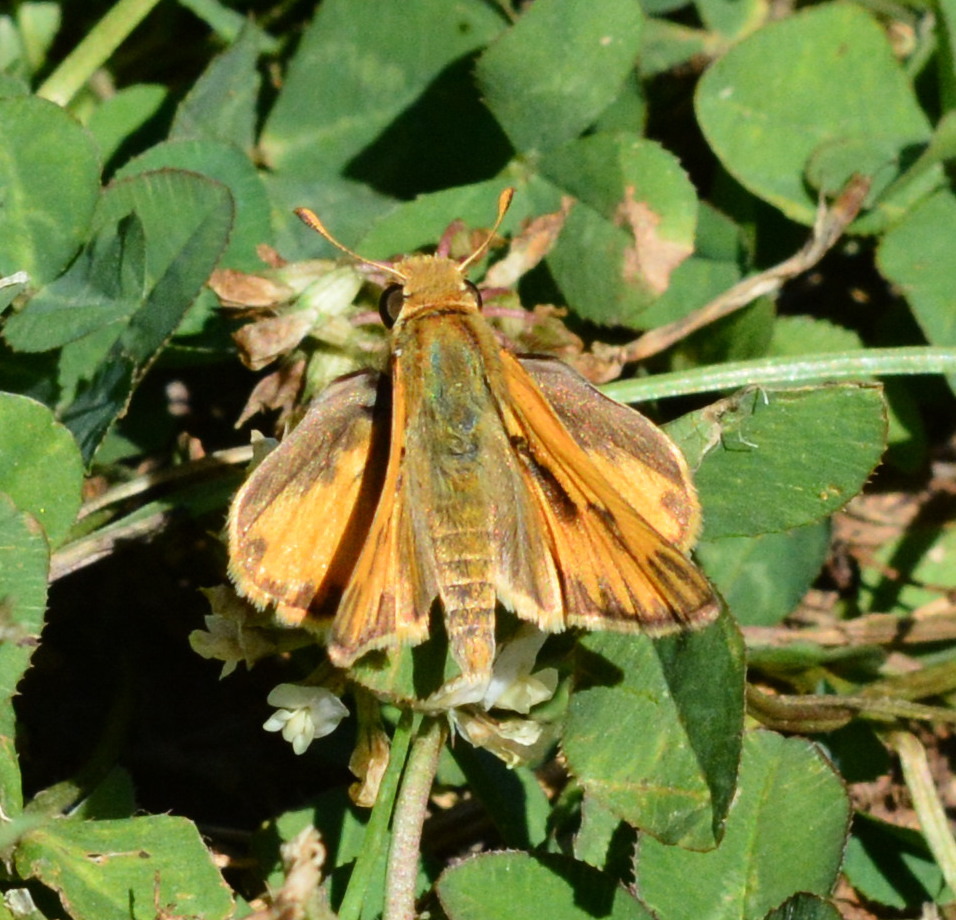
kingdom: Animalia
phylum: Arthropoda
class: Insecta
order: Lepidoptera
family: Hesperiidae
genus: Hylephila
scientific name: Hylephila phyleus
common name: Fiery skipper
